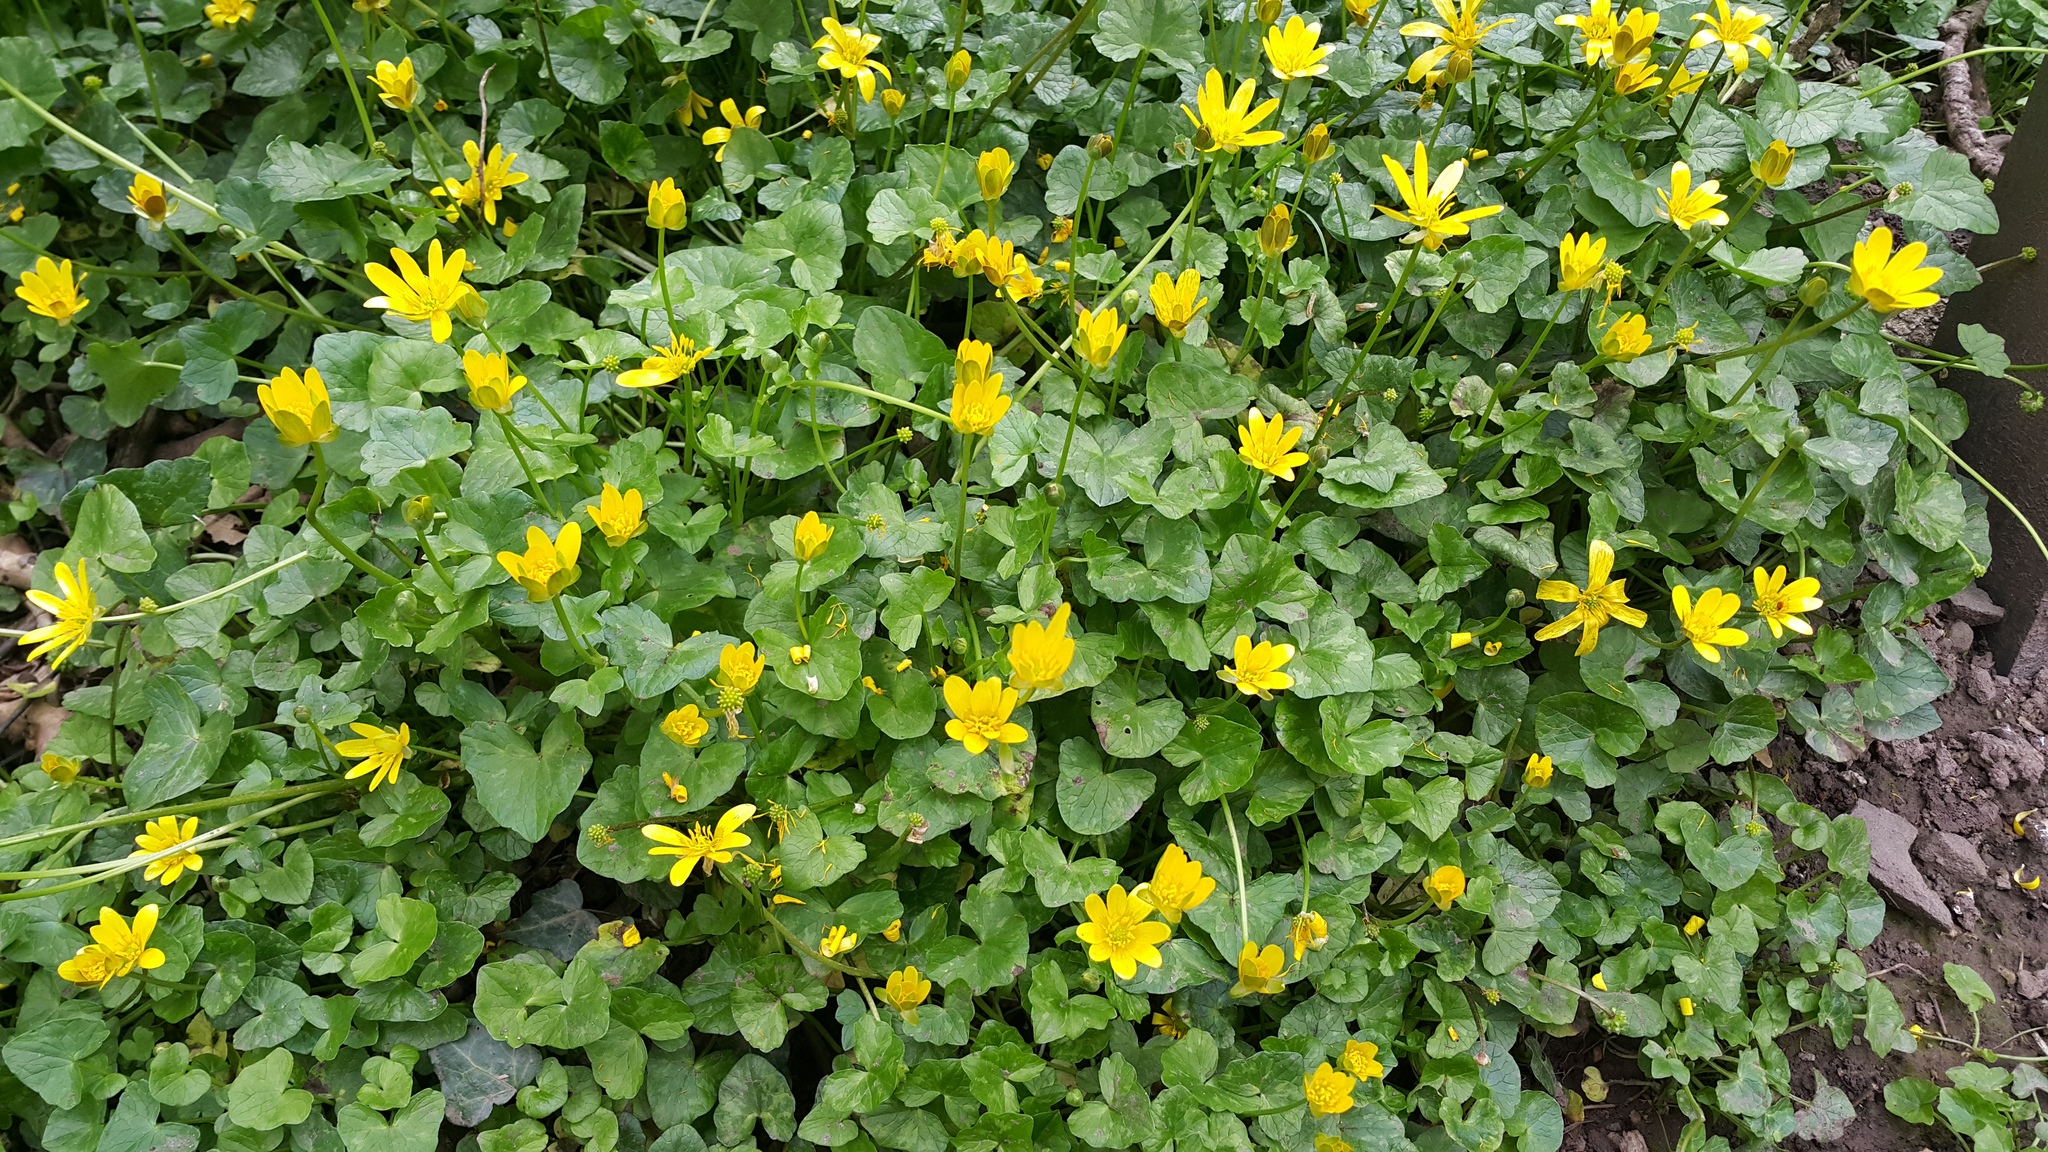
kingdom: Plantae
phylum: Tracheophyta
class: Magnoliopsida
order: Ranunculales
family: Ranunculaceae
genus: Ficaria
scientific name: Ficaria verna
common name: Lesser celandine
